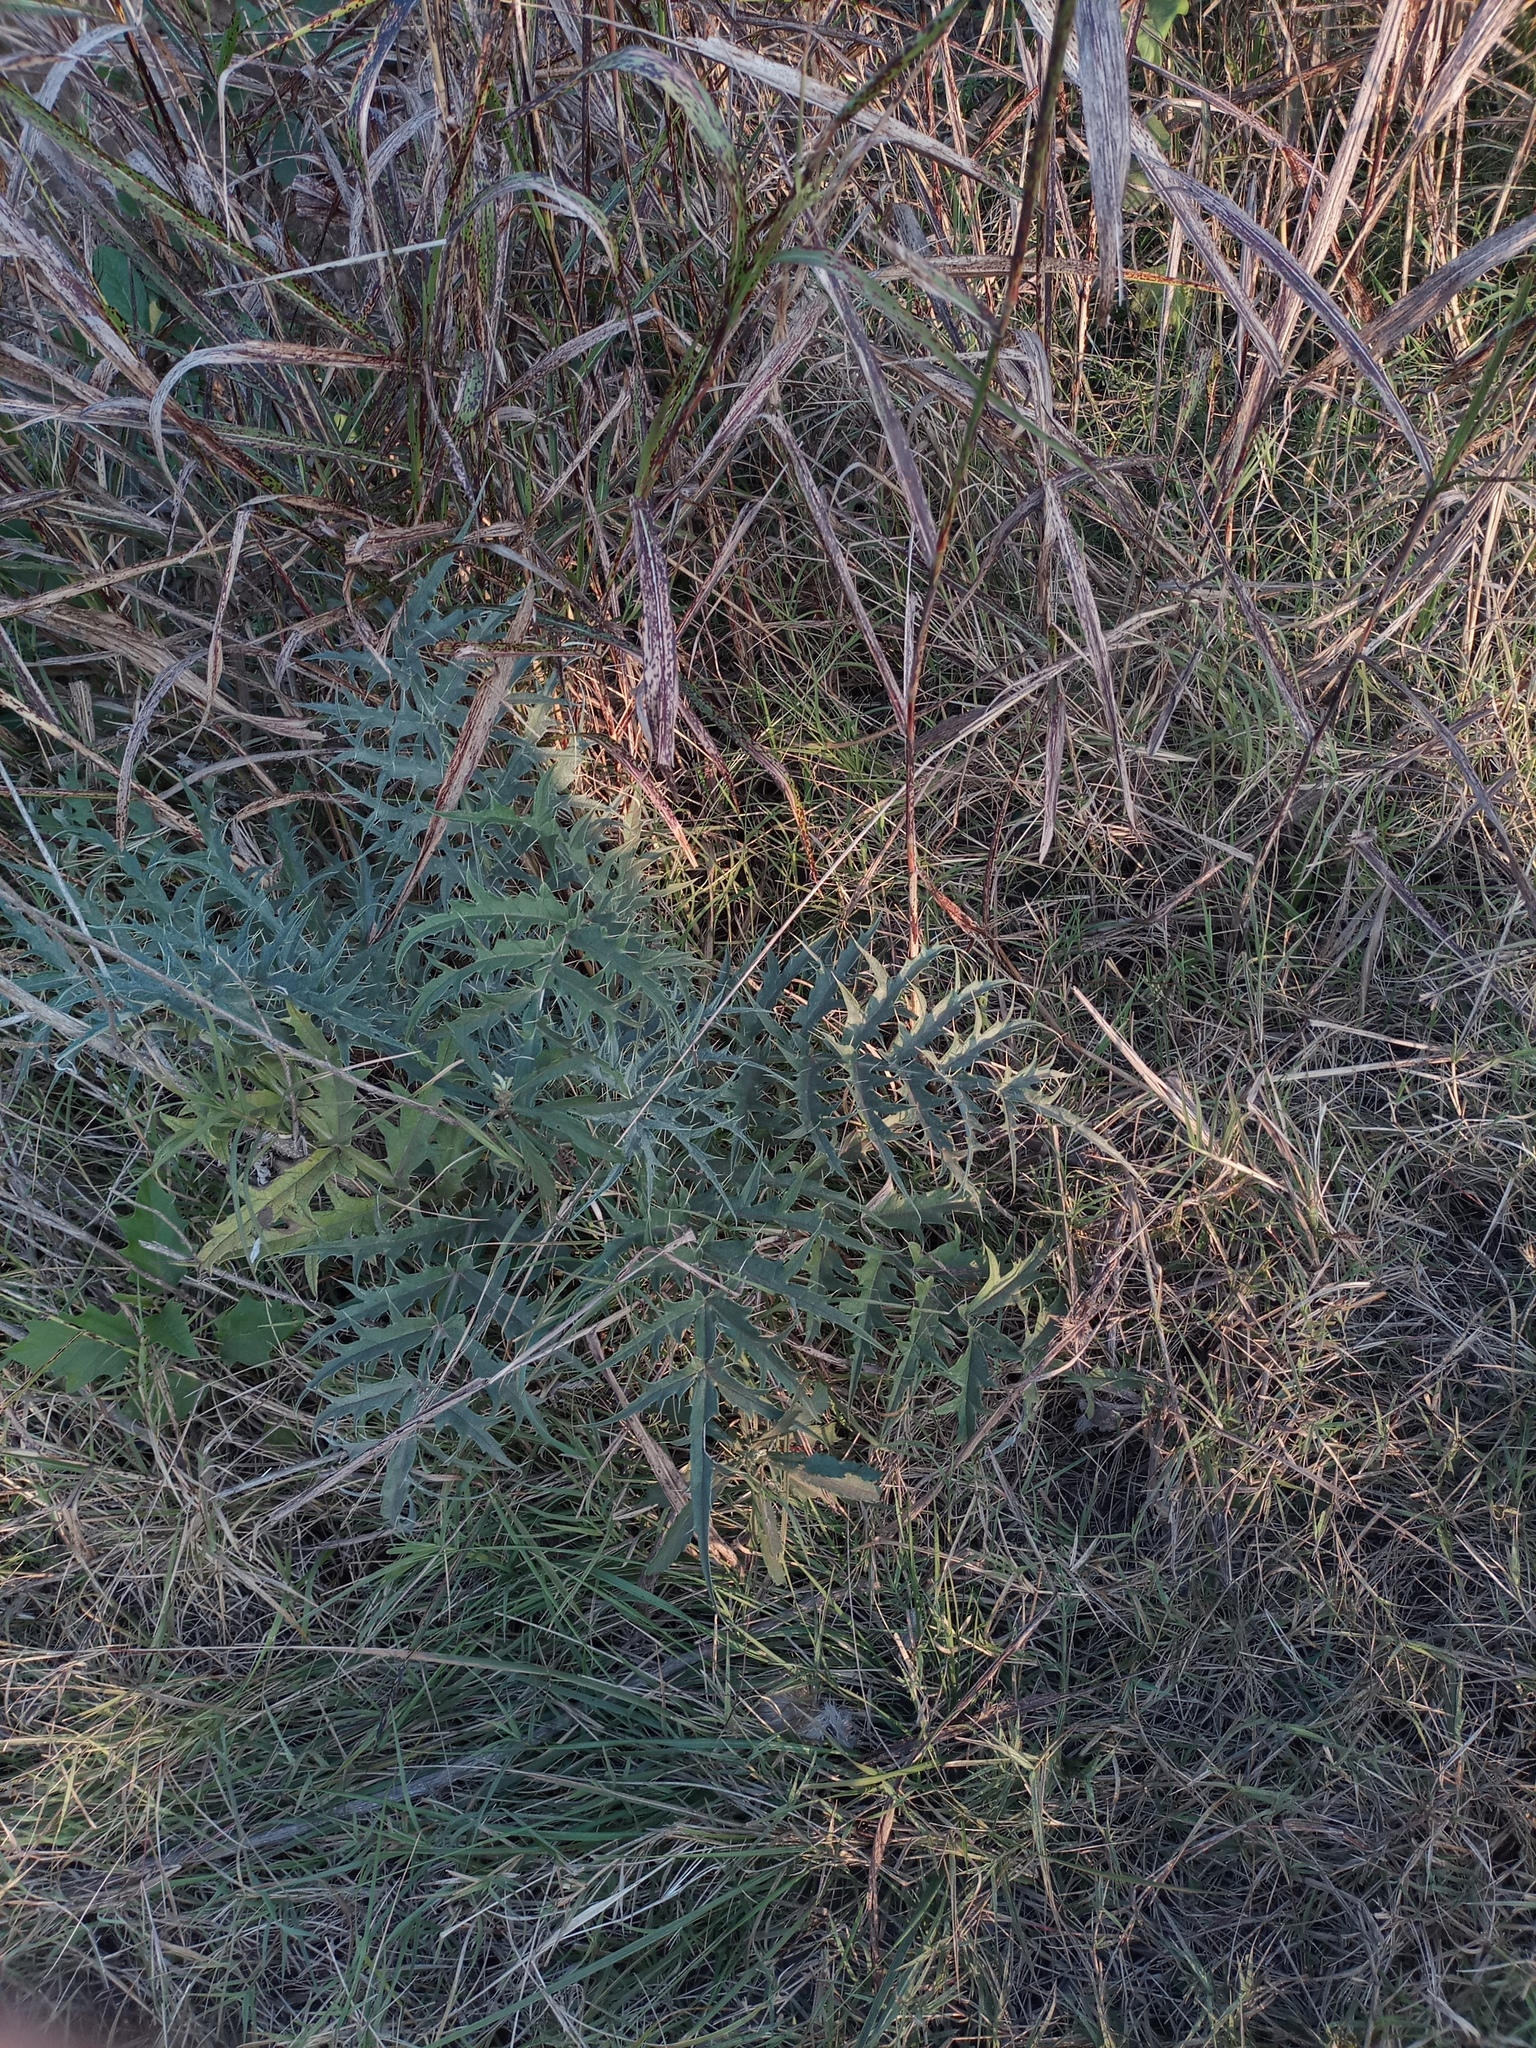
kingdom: Plantae
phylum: Tracheophyta
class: Magnoliopsida
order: Asterales
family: Asteraceae
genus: Cynara
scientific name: Cynara cardunculus
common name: Globe artichoke
